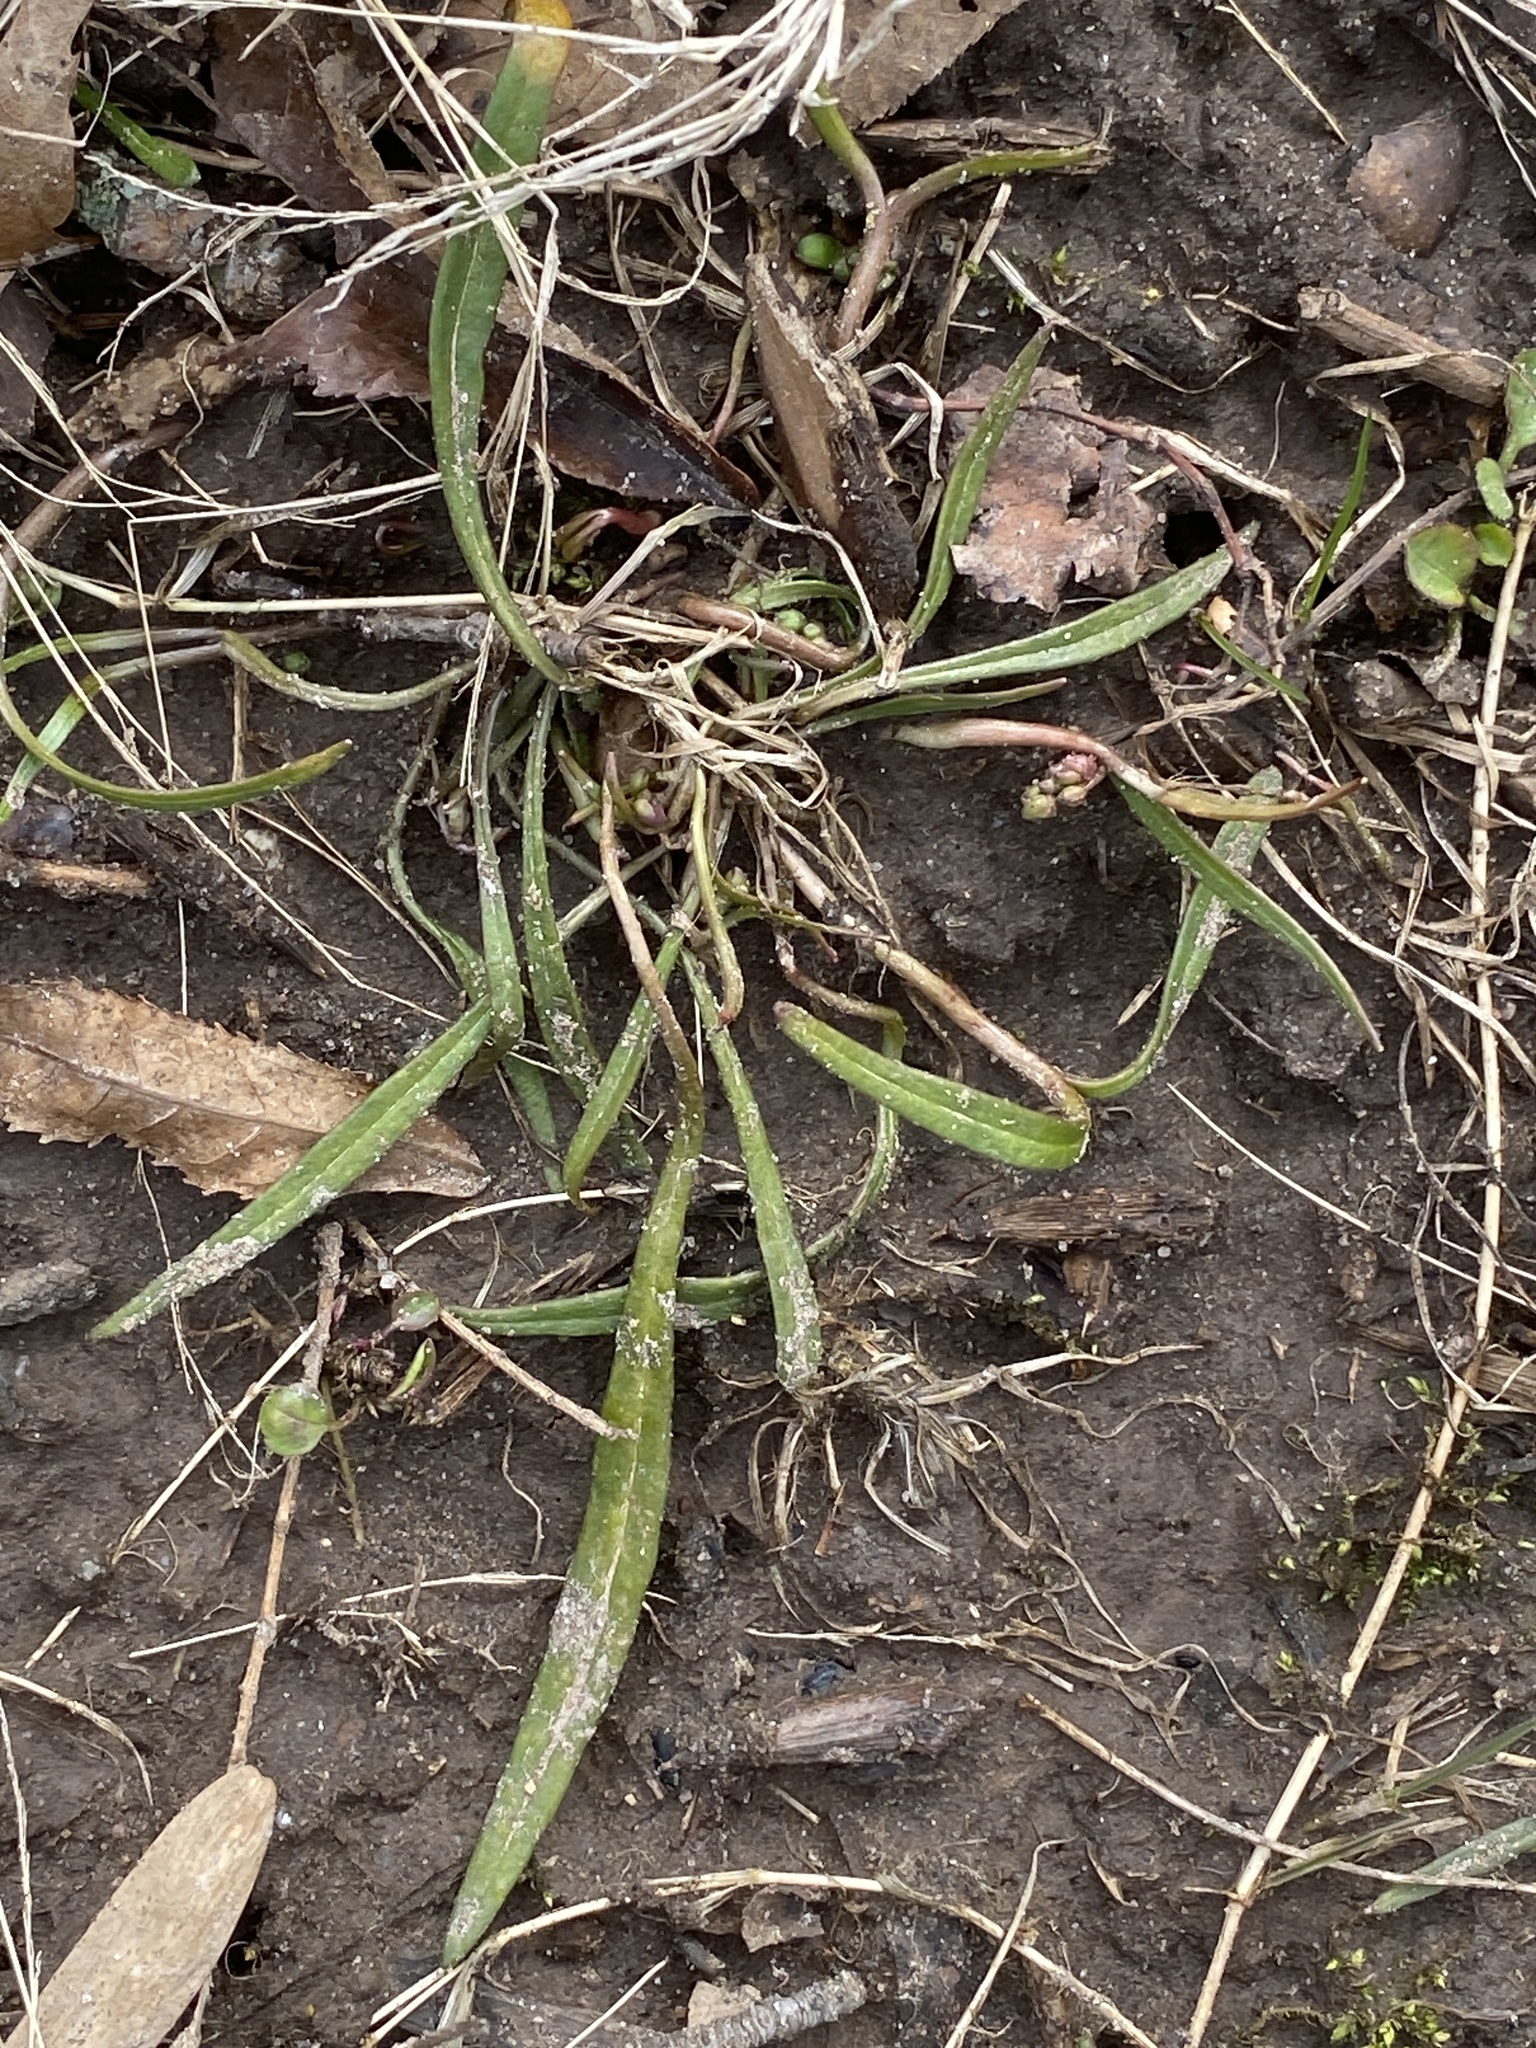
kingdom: Plantae
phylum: Tracheophyta
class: Magnoliopsida
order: Caryophyllales
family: Montiaceae
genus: Claytonia
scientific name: Claytonia virginica
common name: Virginia springbeauty
